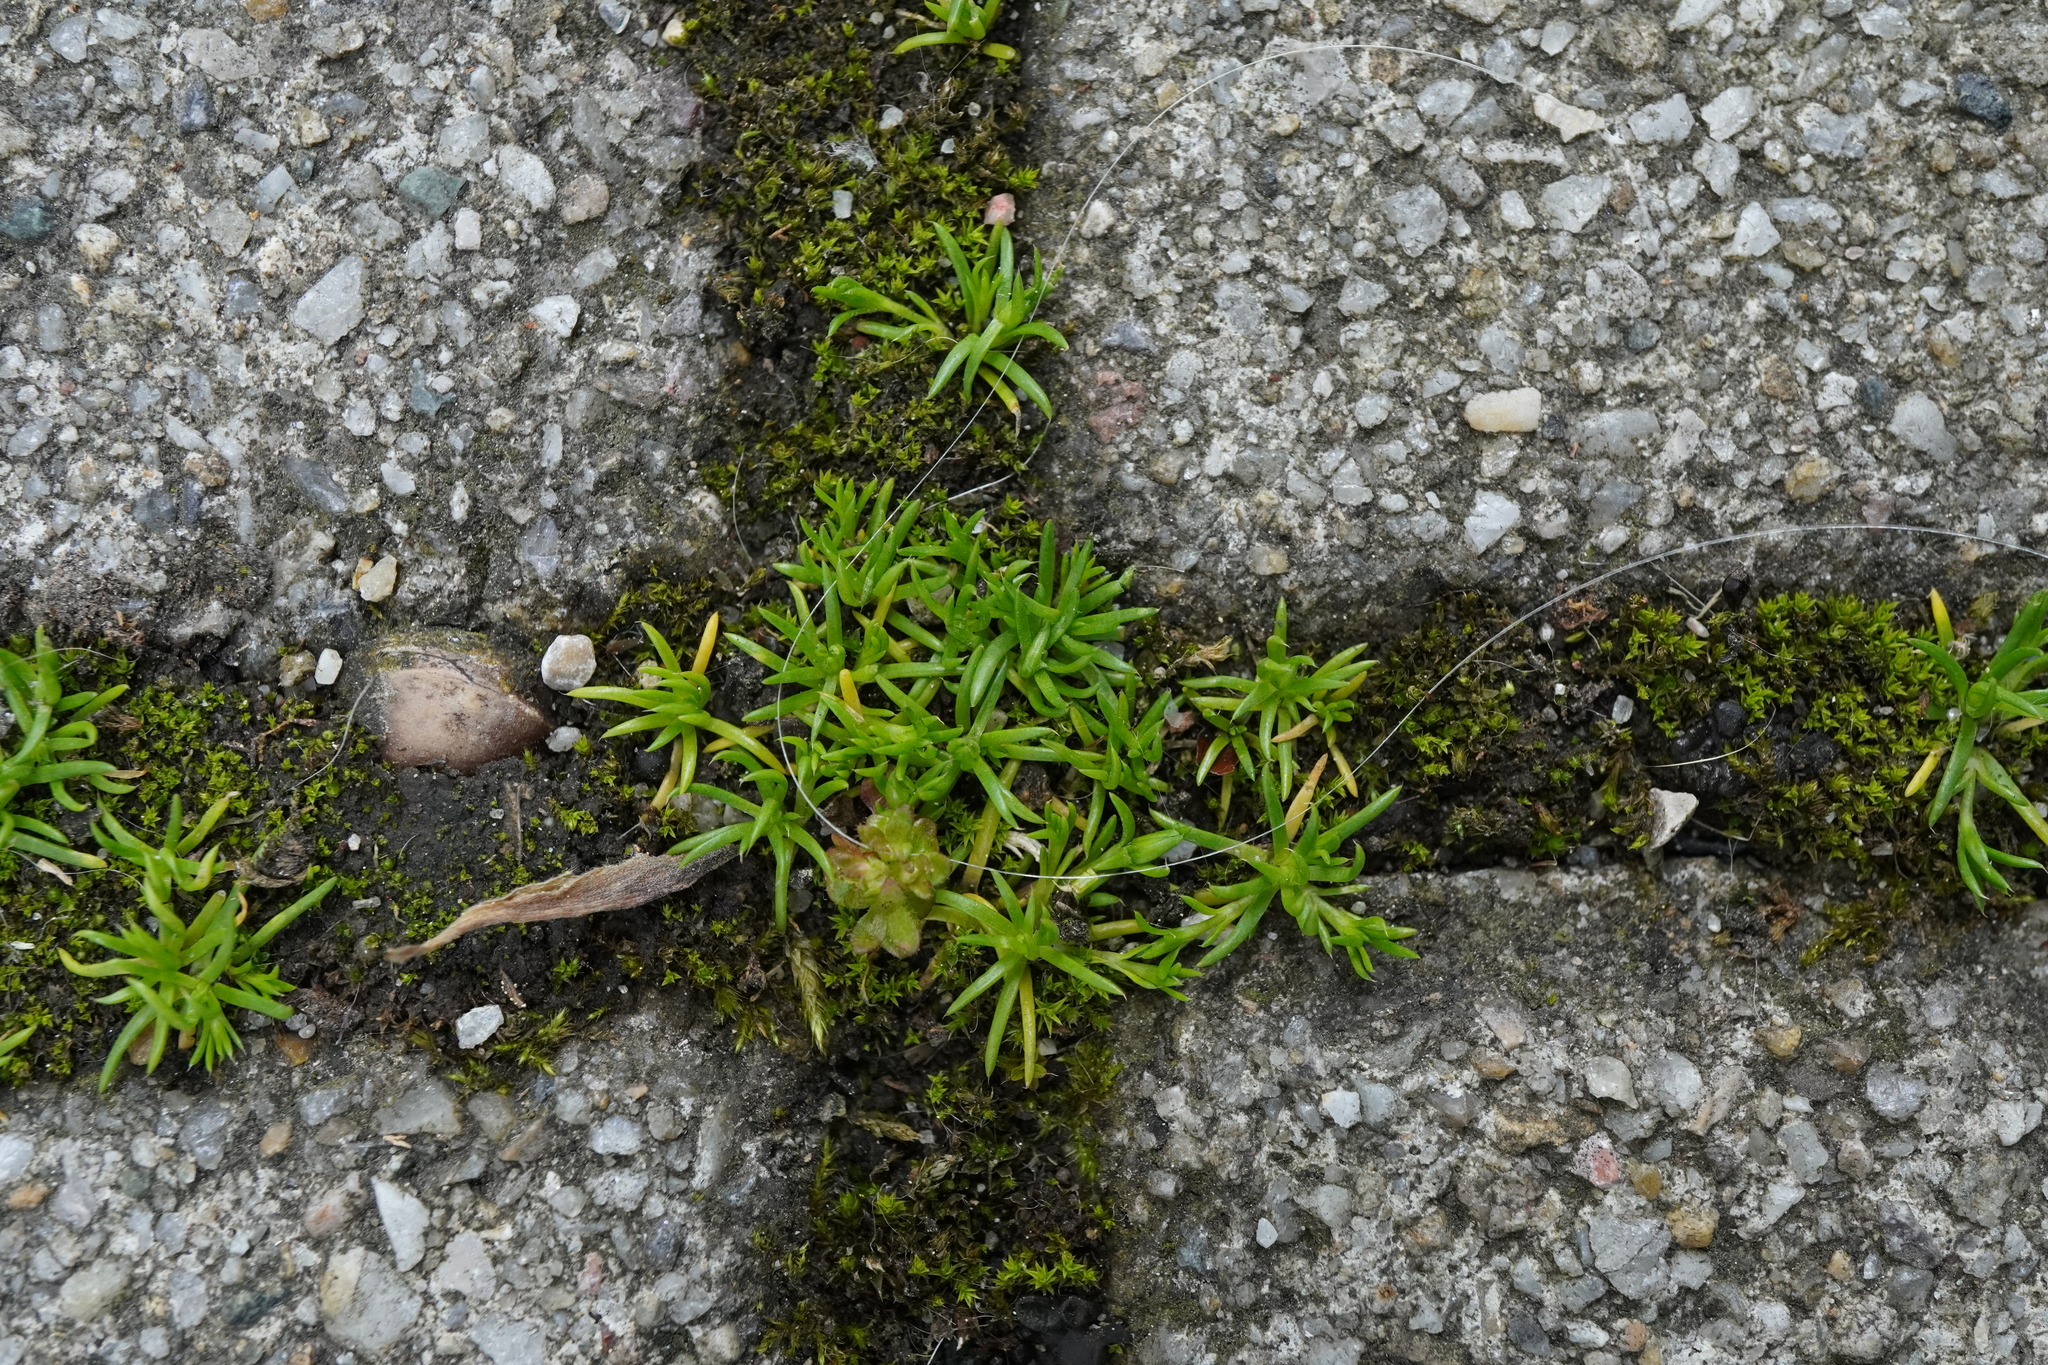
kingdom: Plantae
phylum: Tracheophyta
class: Magnoliopsida
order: Caryophyllales
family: Caryophyllaceae
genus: Sagina
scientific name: Sagina apetala
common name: Annual pearlwort
